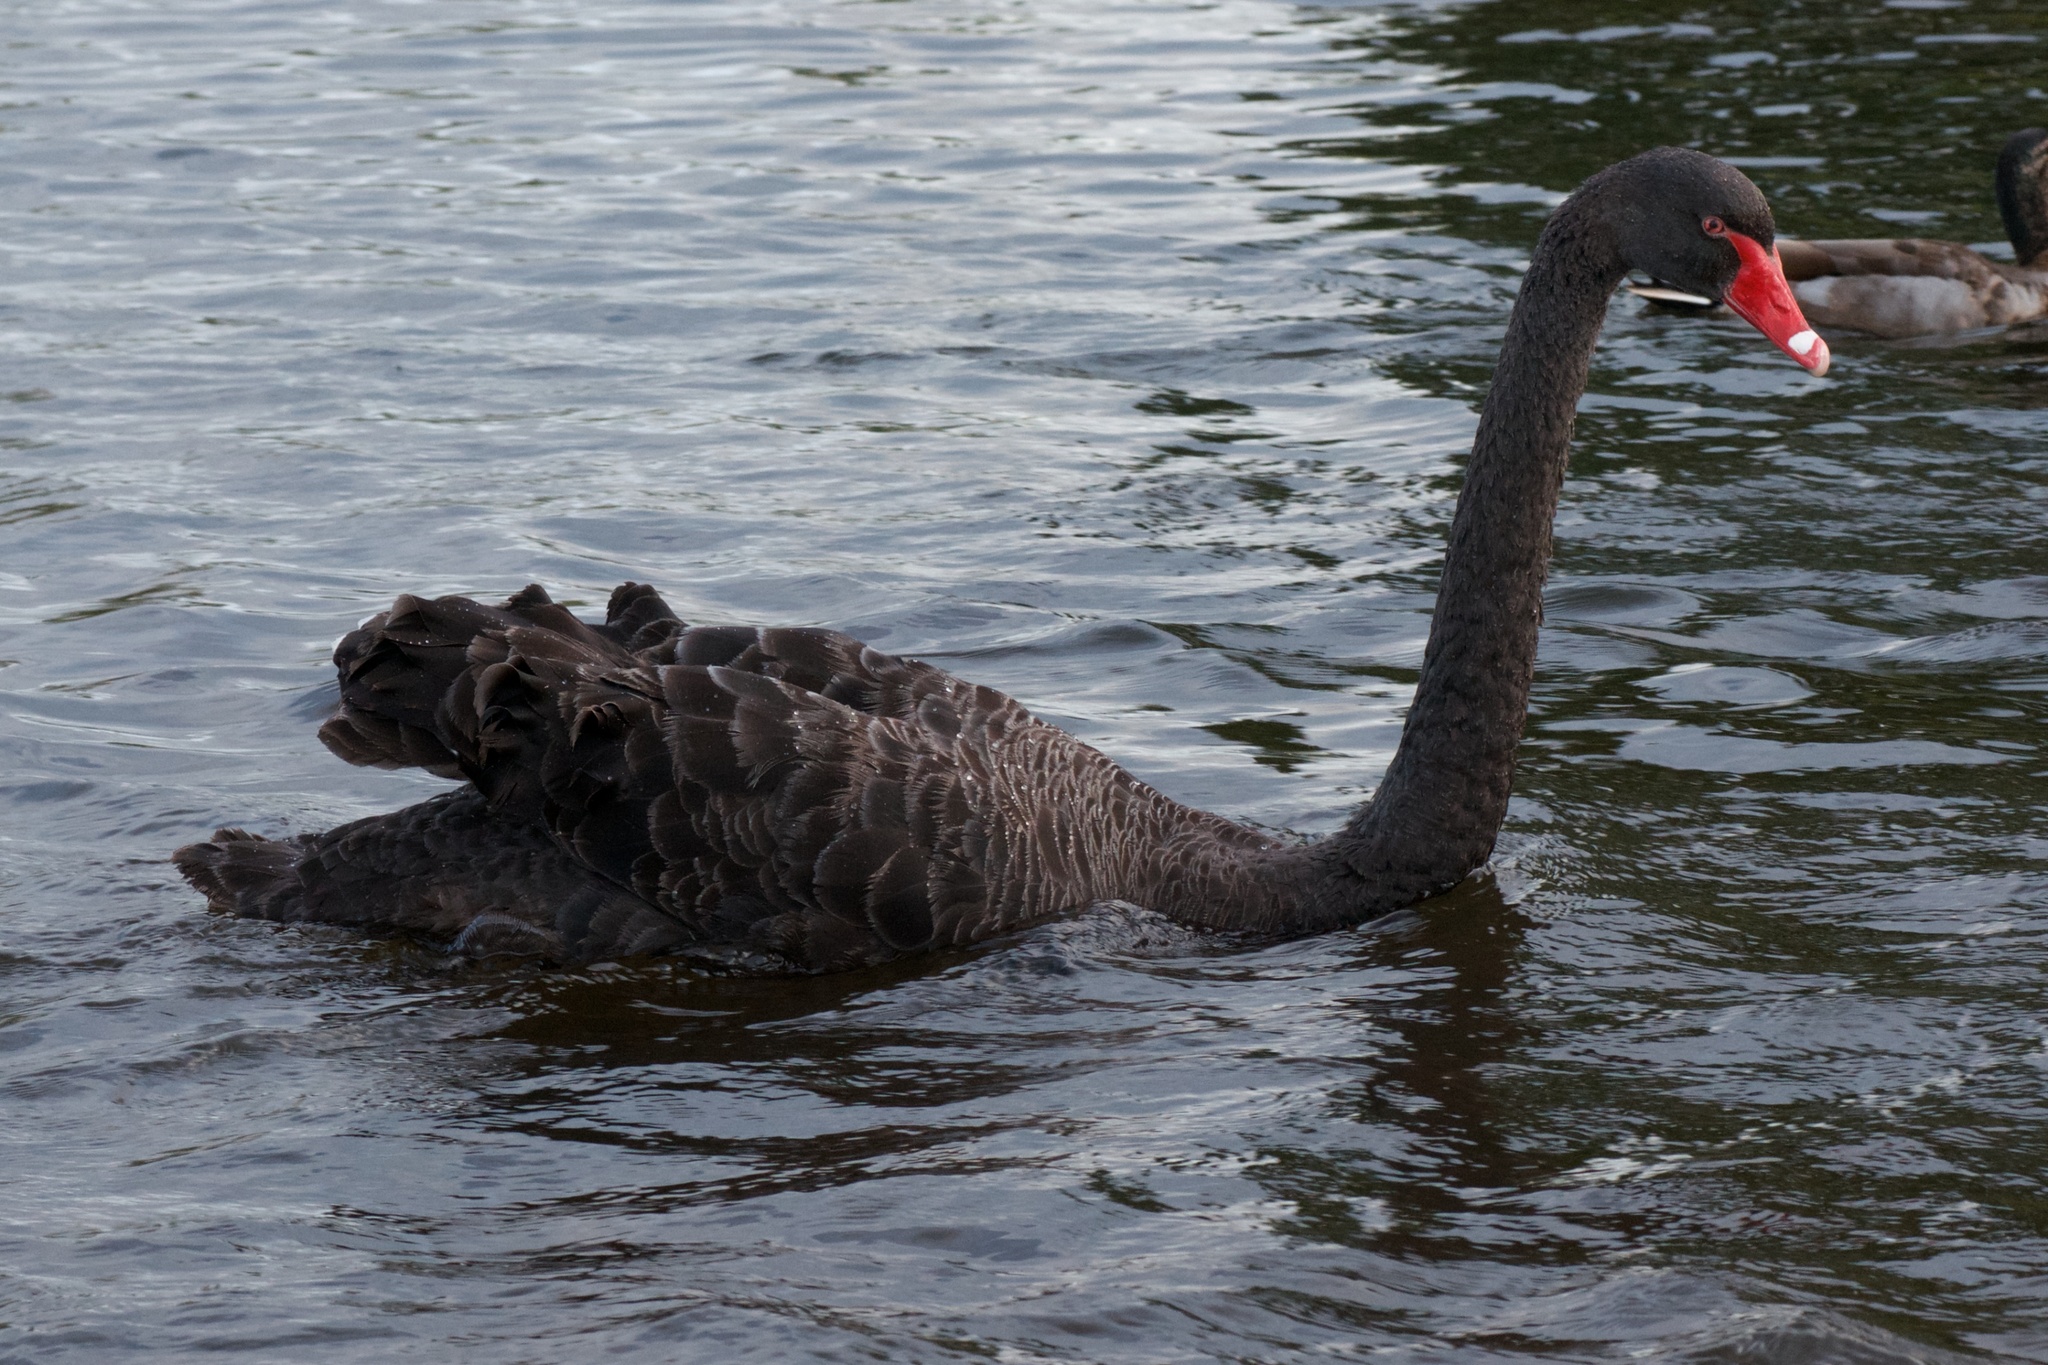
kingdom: Animalia
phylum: Chordata
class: Aves
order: Anseriformes
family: Anatidae
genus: Cygnus
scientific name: Cygnus atratus
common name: Black swan
